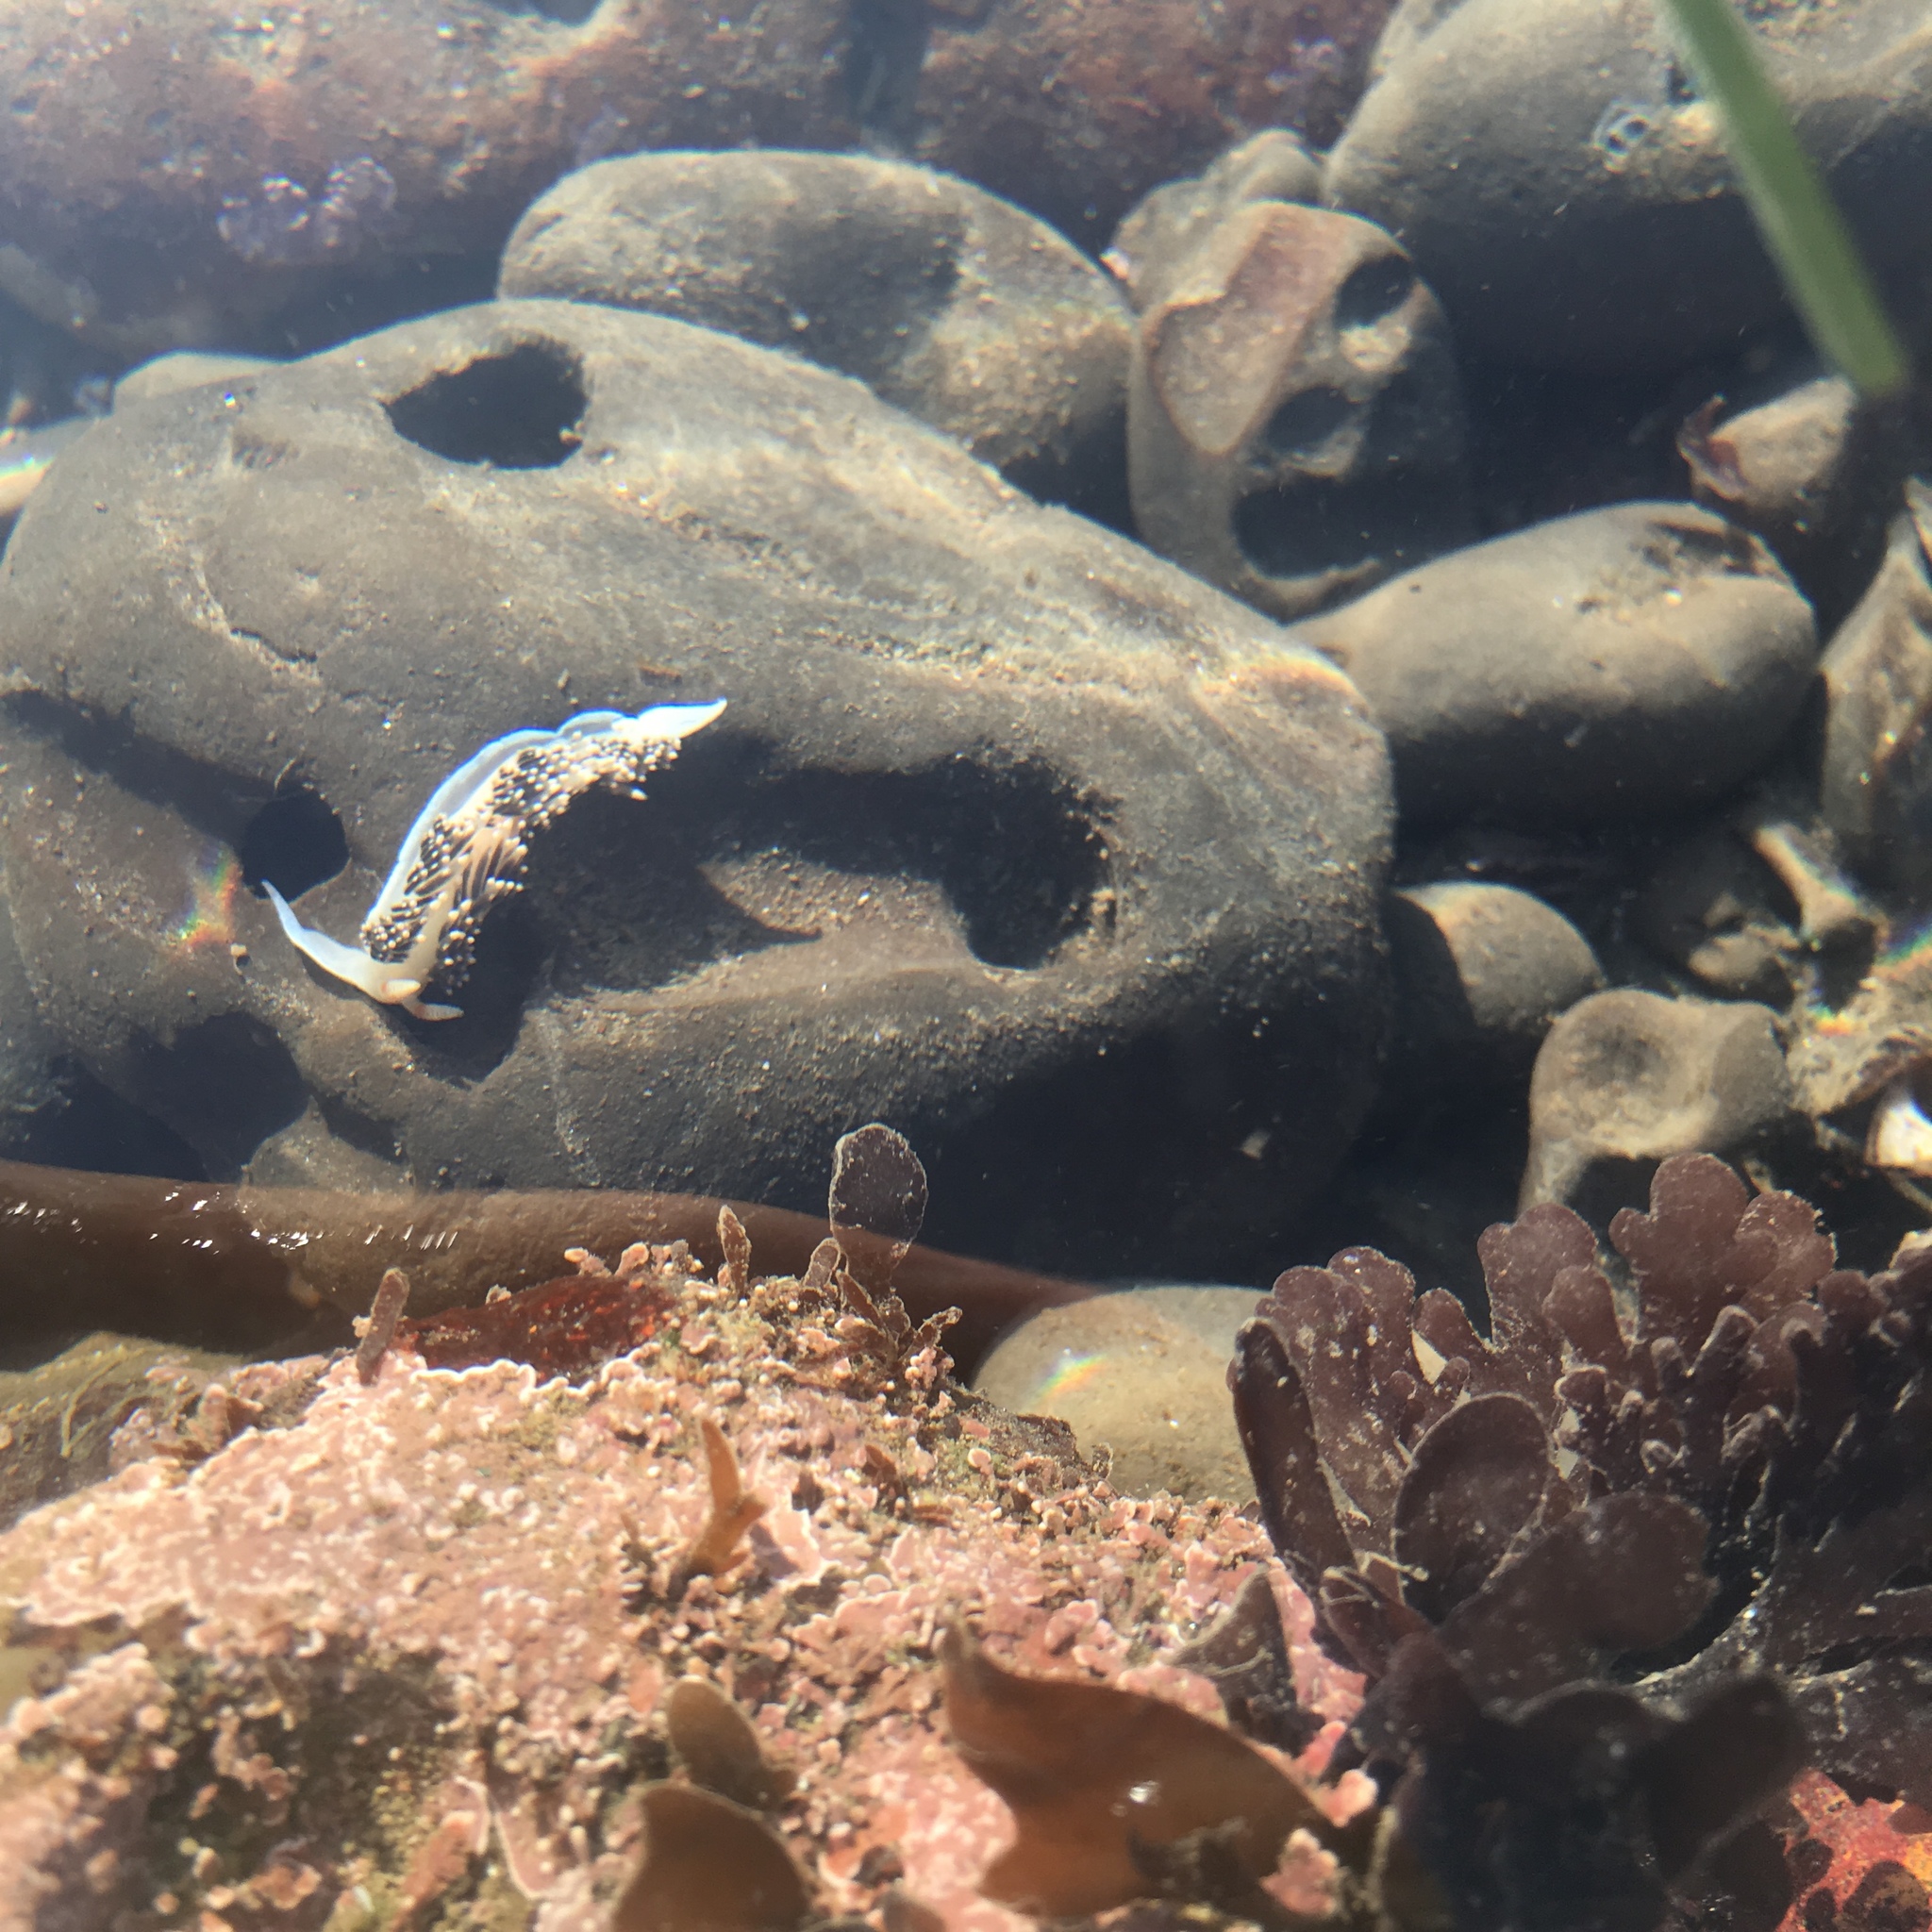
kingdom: Animalia
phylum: Mollusca
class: Gastropoda
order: Nudibranchia
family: Facelinidae
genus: Phidiana
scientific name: Phidiana hiltoni
